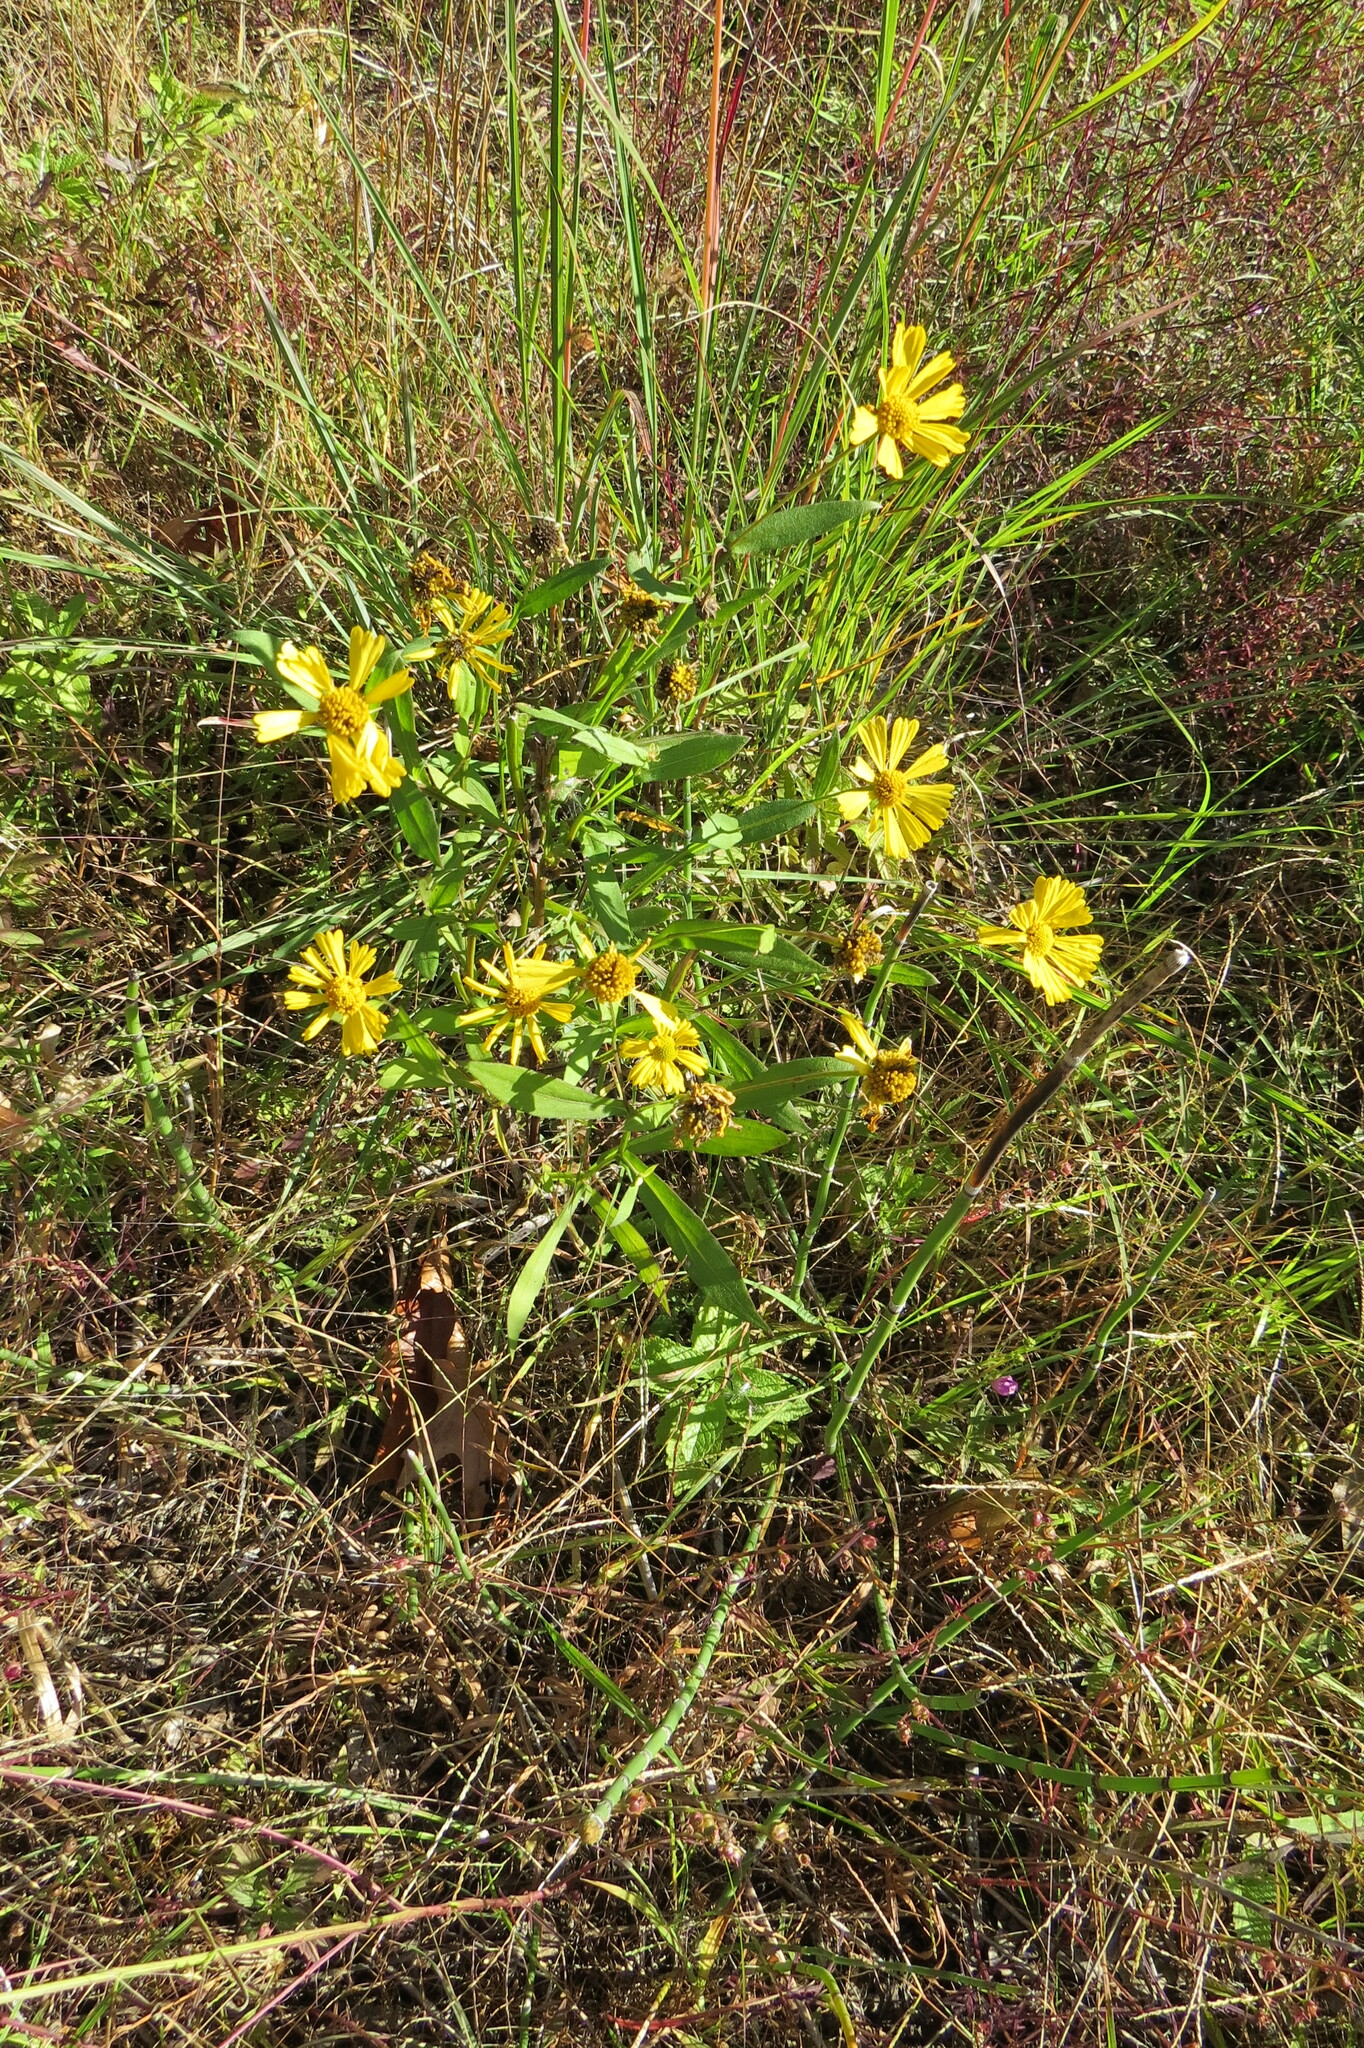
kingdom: Plantae
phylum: Tracheophyta
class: Magnoliopsida
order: Asterales
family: Asteraceae
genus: Helenium
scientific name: Helenium autumnale
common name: Sneezeweed
